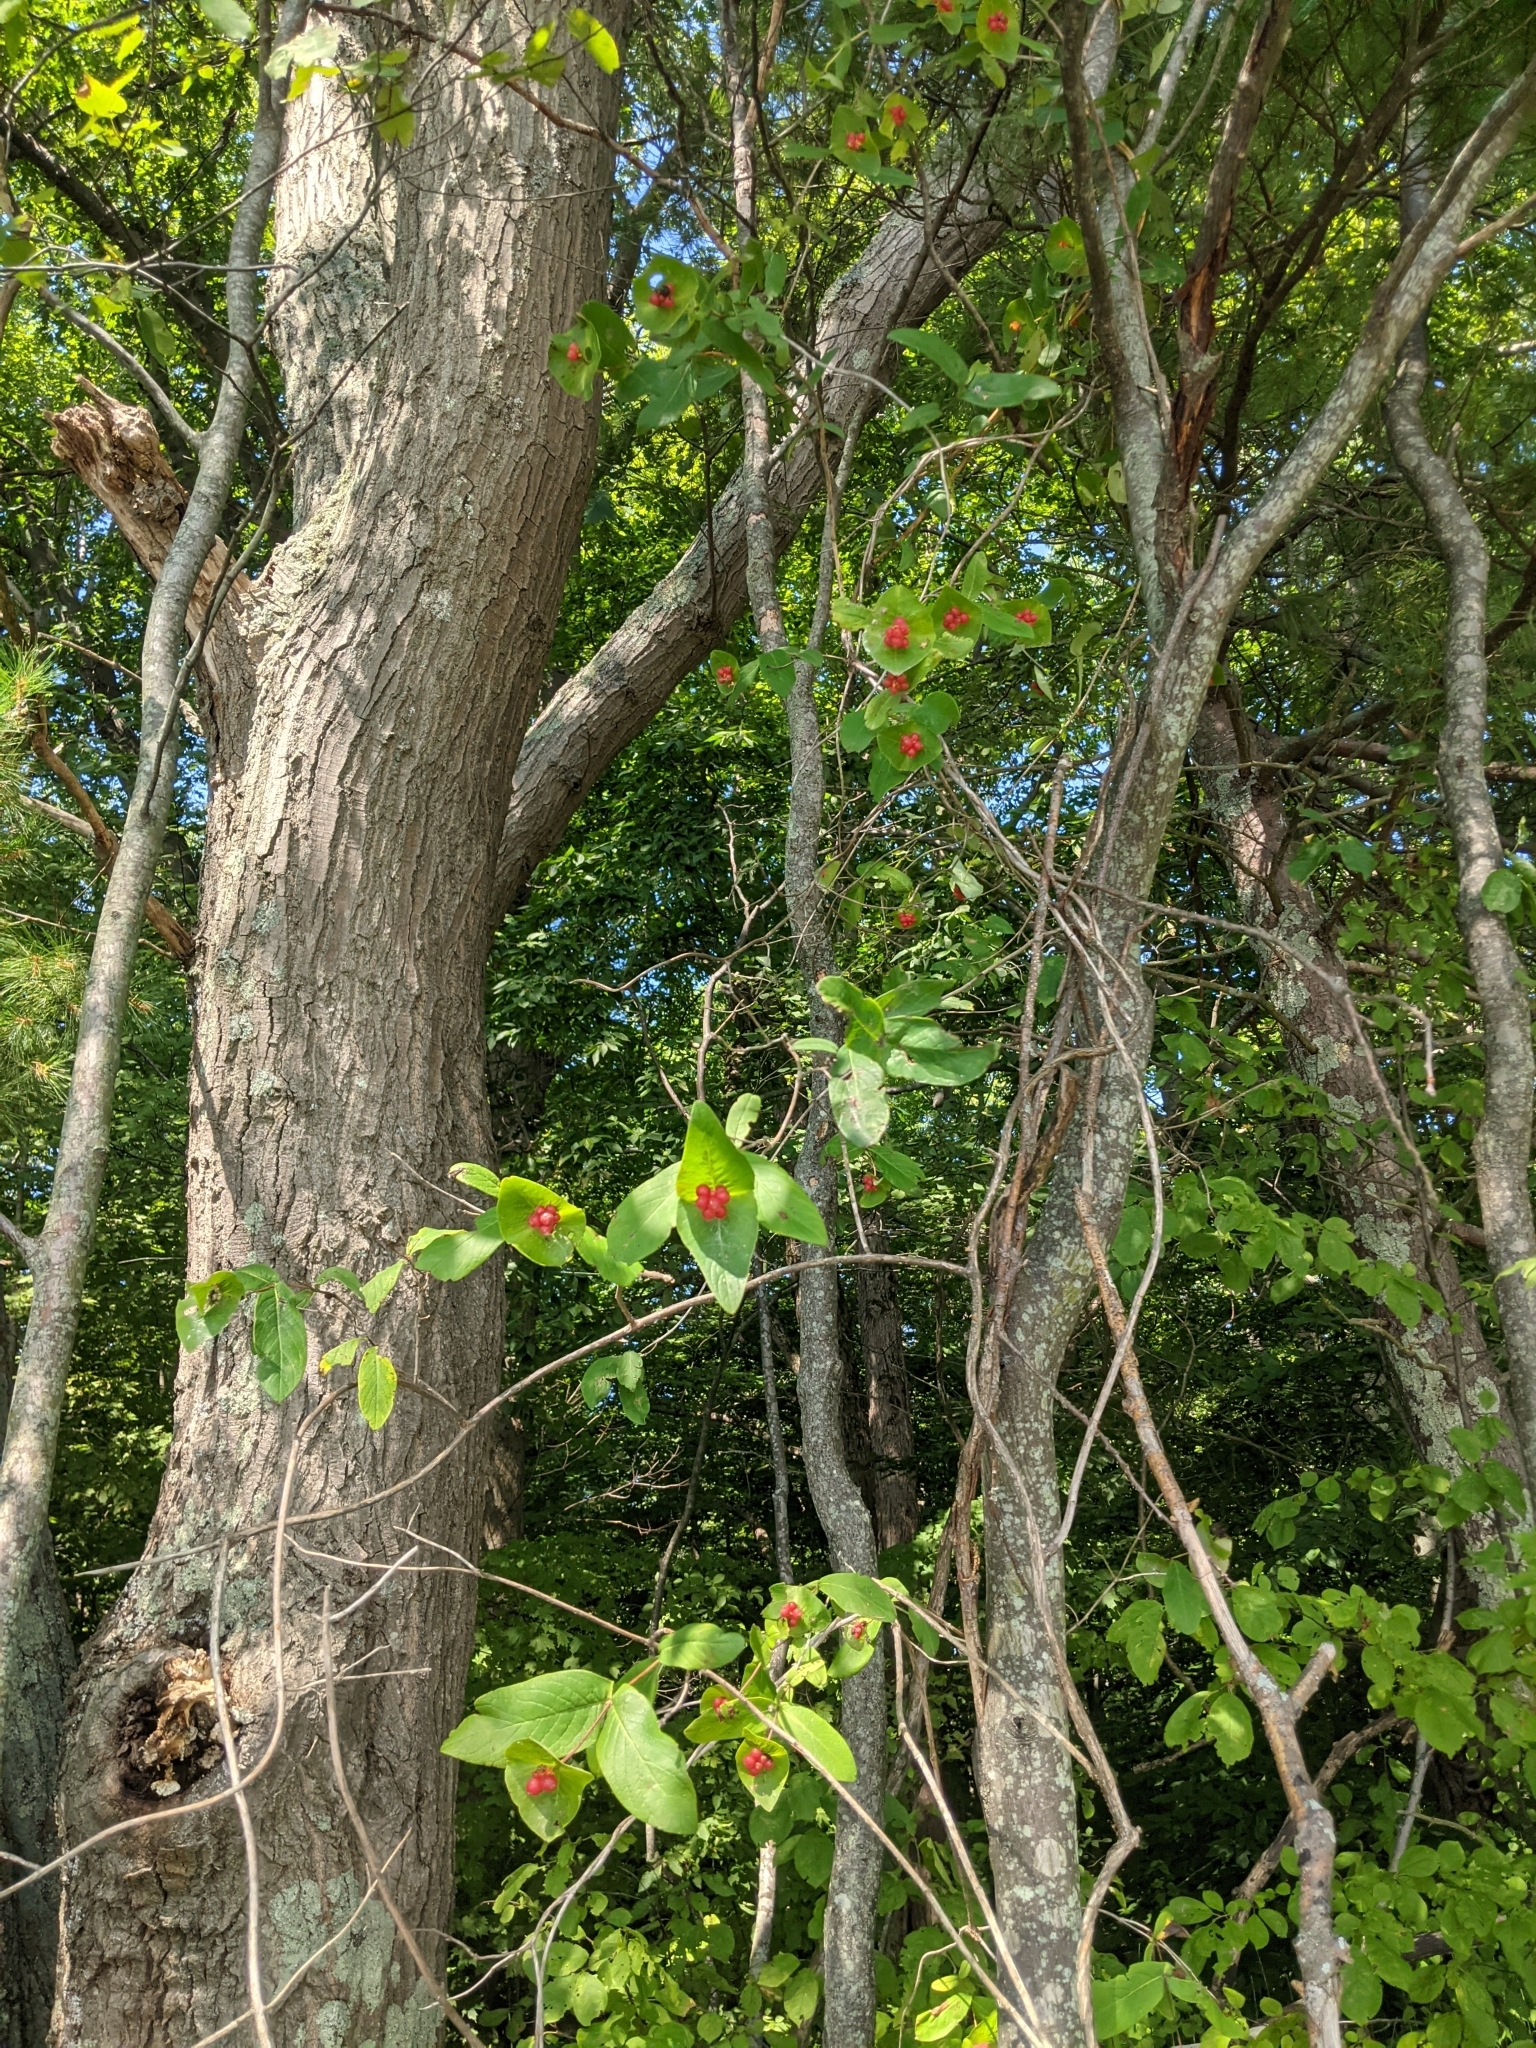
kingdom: Plantae
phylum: Tracheophyta
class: Magnoliopsida
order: Dipsacales
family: Caprifoliaceae
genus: Lonicera
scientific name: Lonicera dioica
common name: Limber honeysuckle
